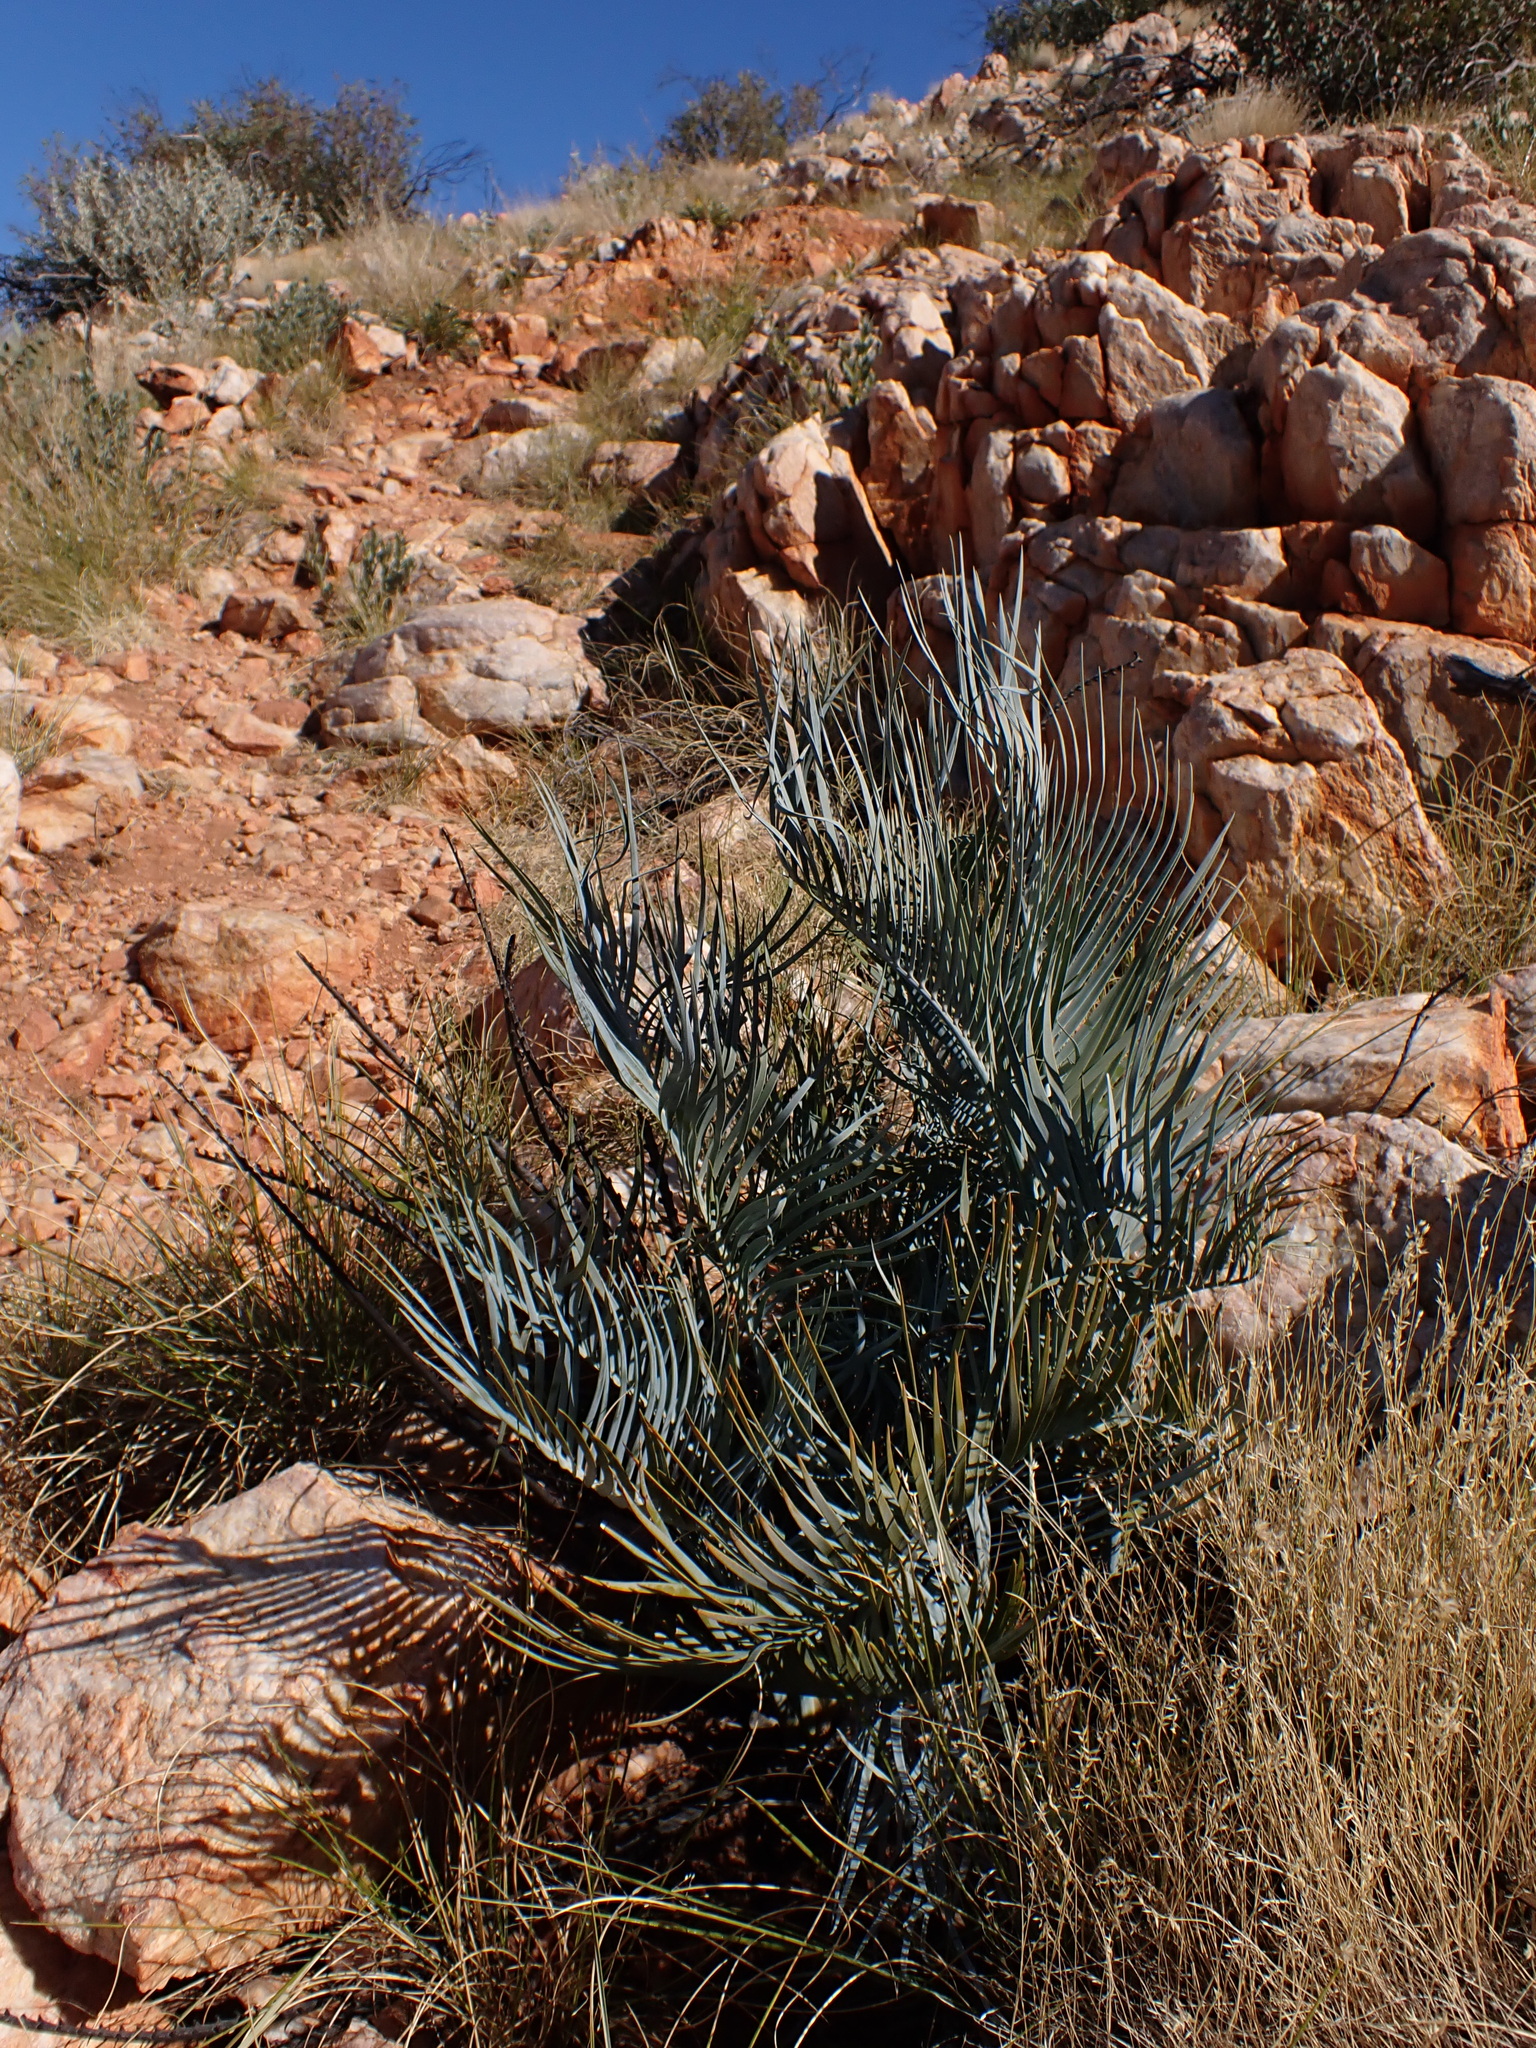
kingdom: Plantae
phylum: Tracheophyta
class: Cycadopsida
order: Cycadales
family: Zamiaceae
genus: Macrozamia
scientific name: Macrozamia macdonnellii
